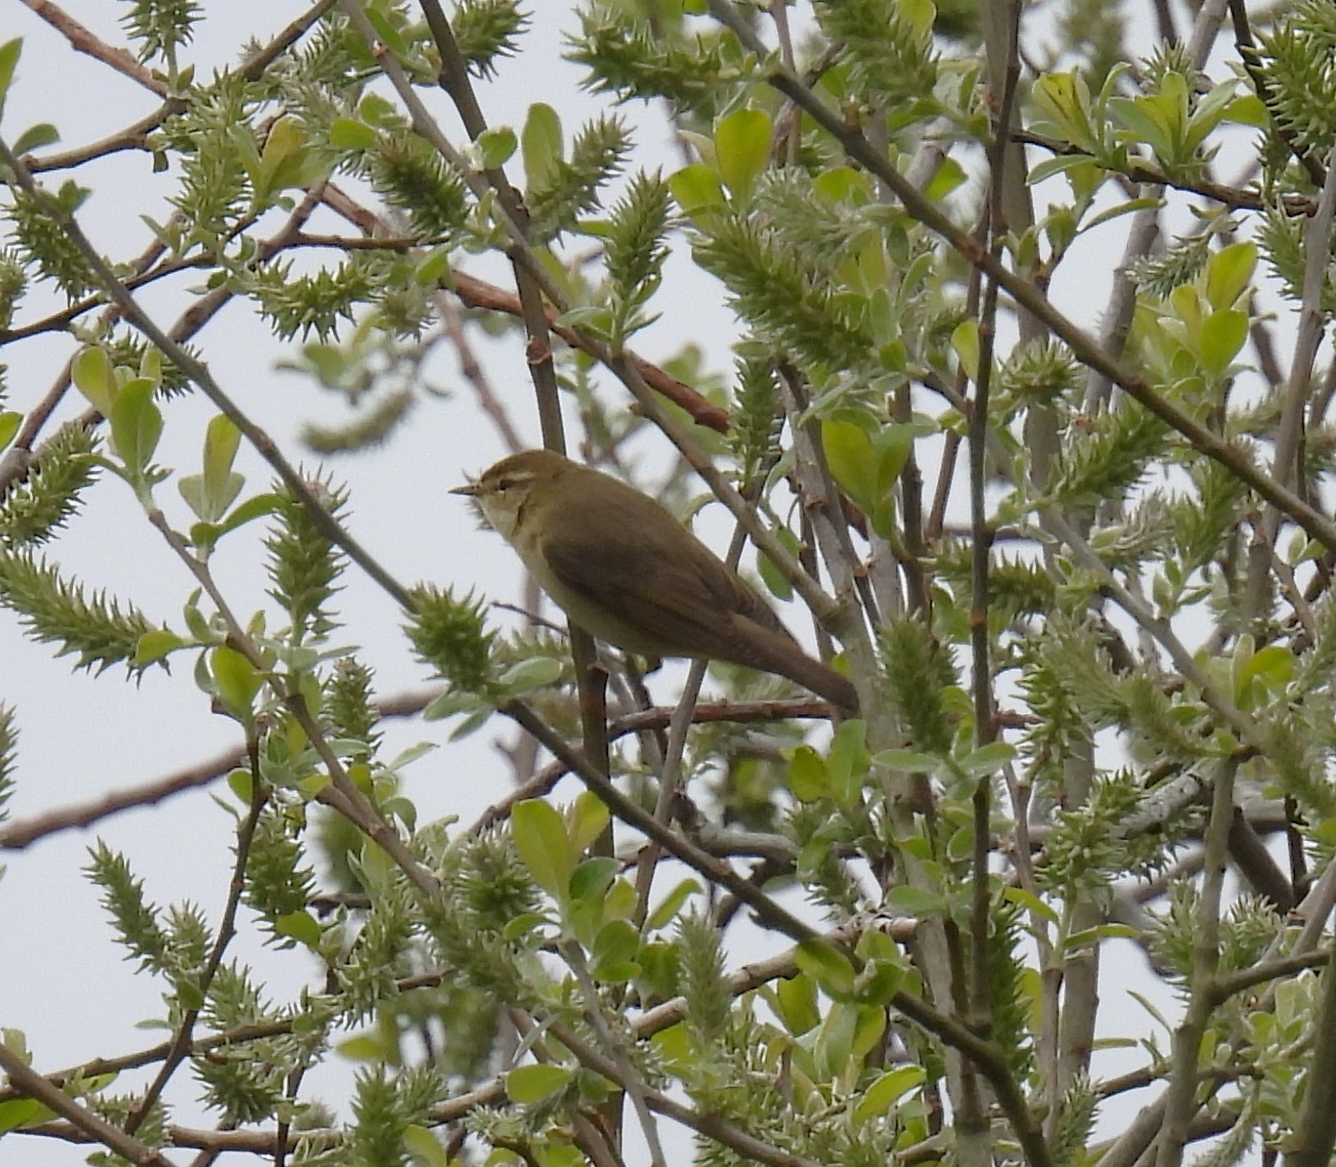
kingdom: Animalia
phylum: Chordata
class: Aves
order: Passeriformes
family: Phylloscopidae
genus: Phylloscopus
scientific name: Phylloscopus trochilus
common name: Willow warbler
